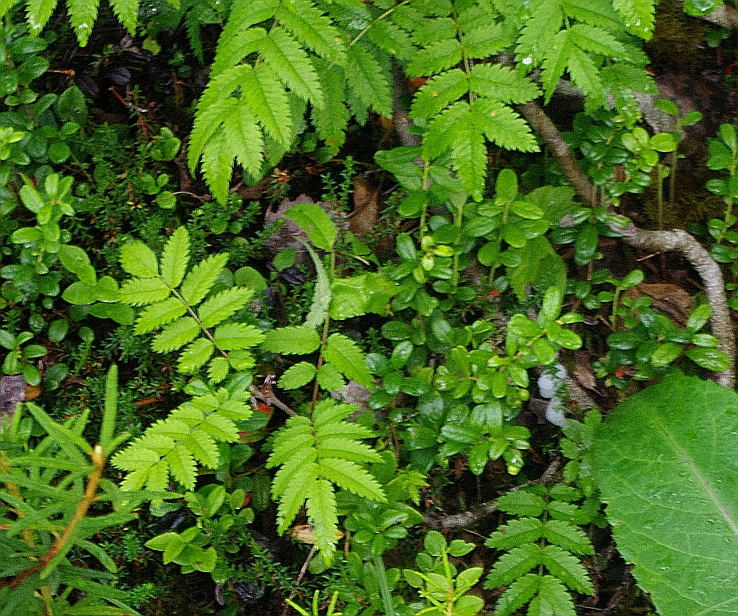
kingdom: Plantae
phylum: Tracheophyta
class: Magnoliopsida
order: Ericales
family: Ericaceae
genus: Vaccinium
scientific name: Vaccinium vitis-idaea
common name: Cowberry
